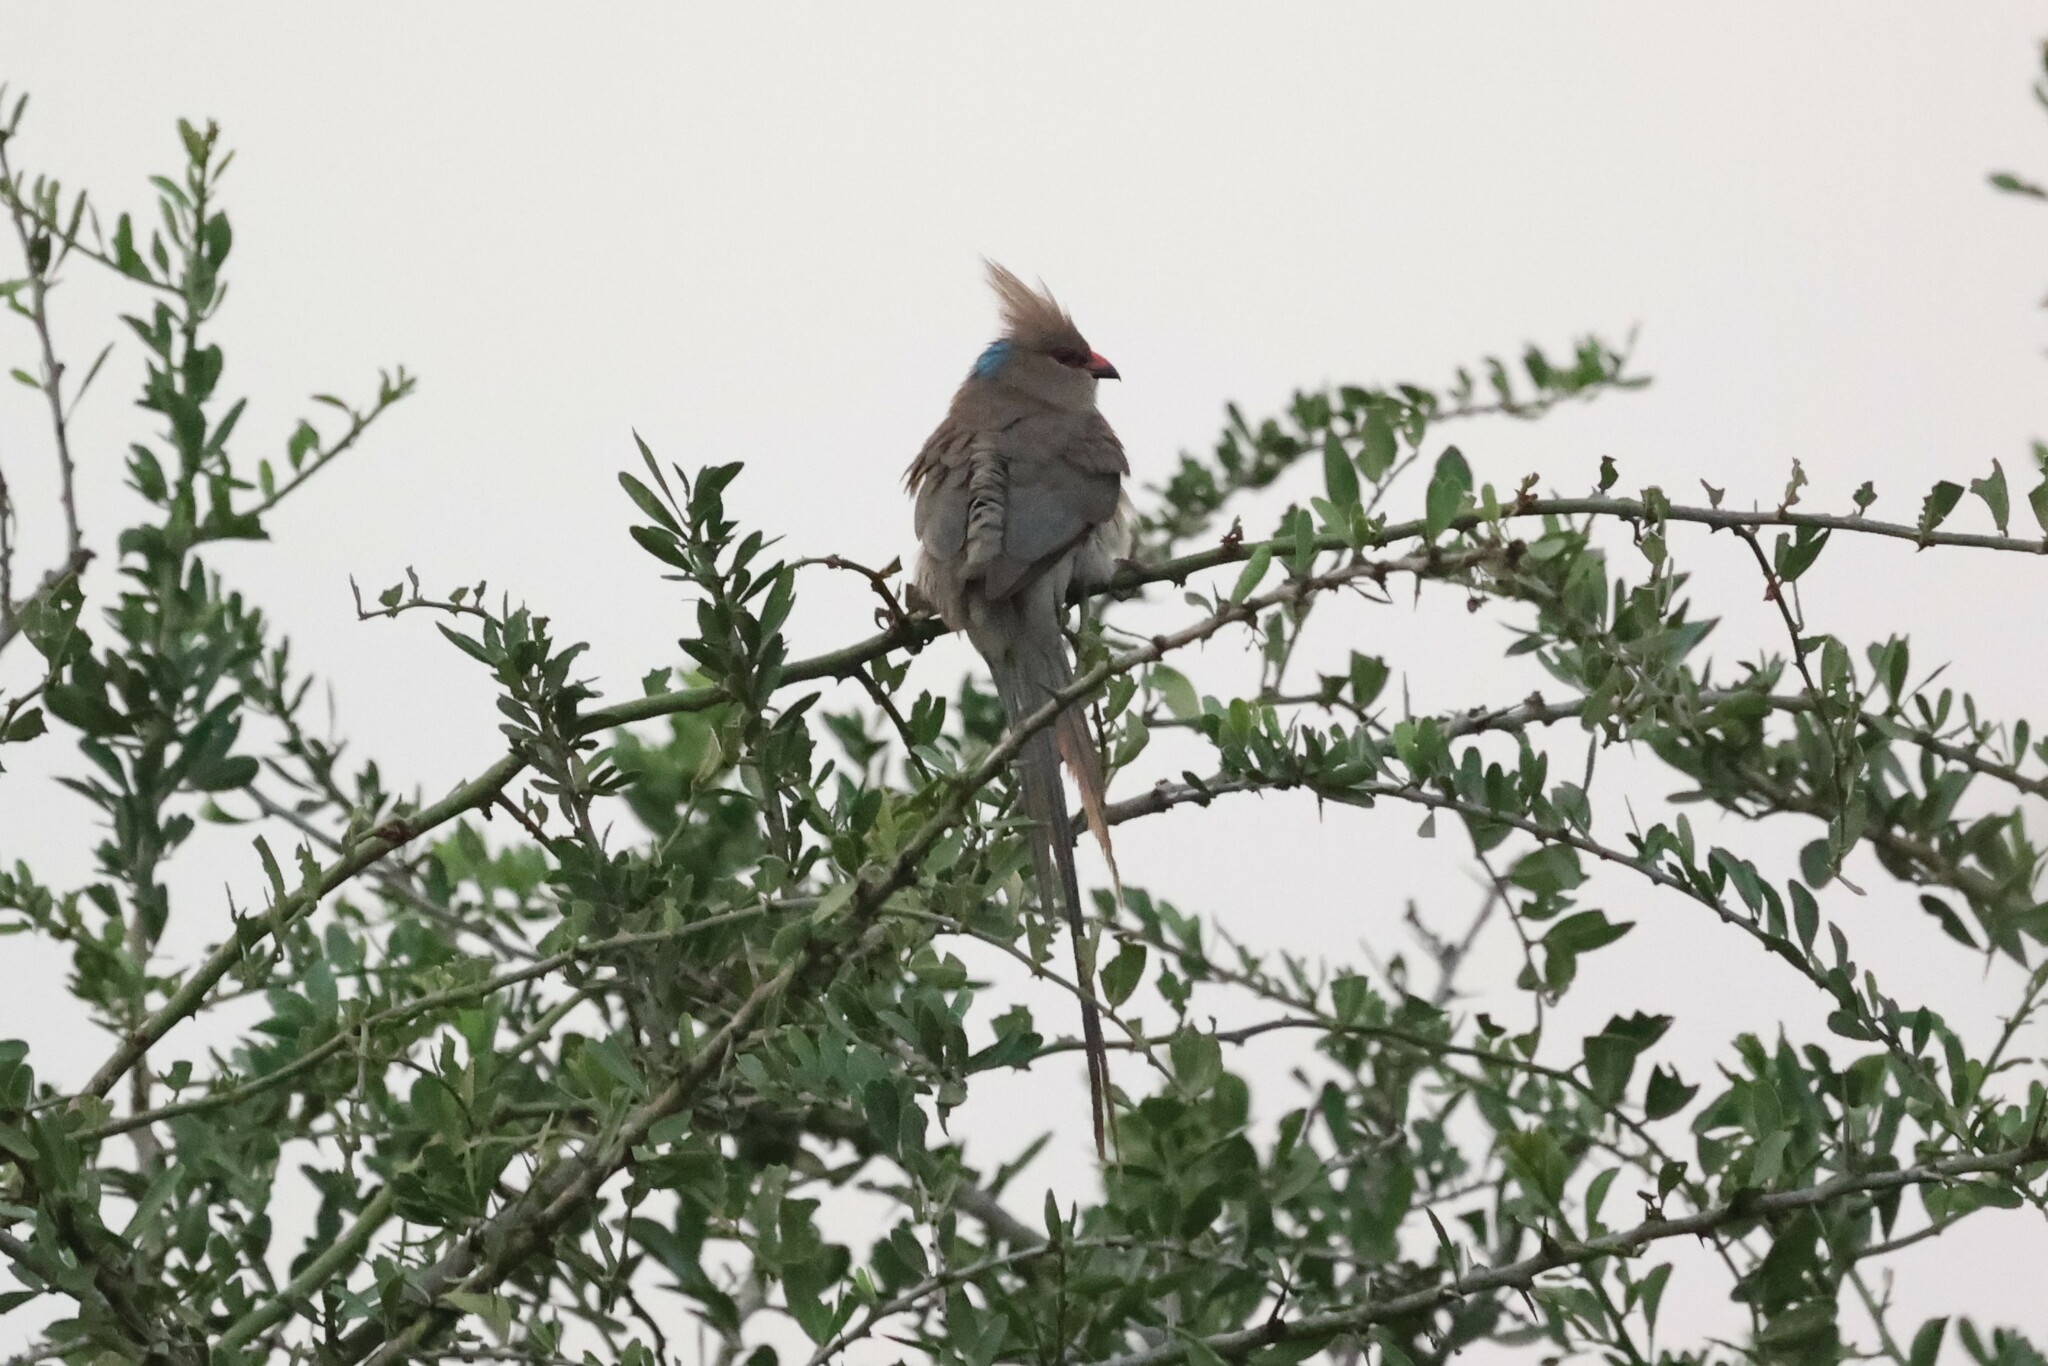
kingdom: Animalia
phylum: Chordata
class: Aves
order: Coliiformes
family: Coliidae
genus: Urocolius
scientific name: Urocolius macrourus
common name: Blue-naped mousebird
